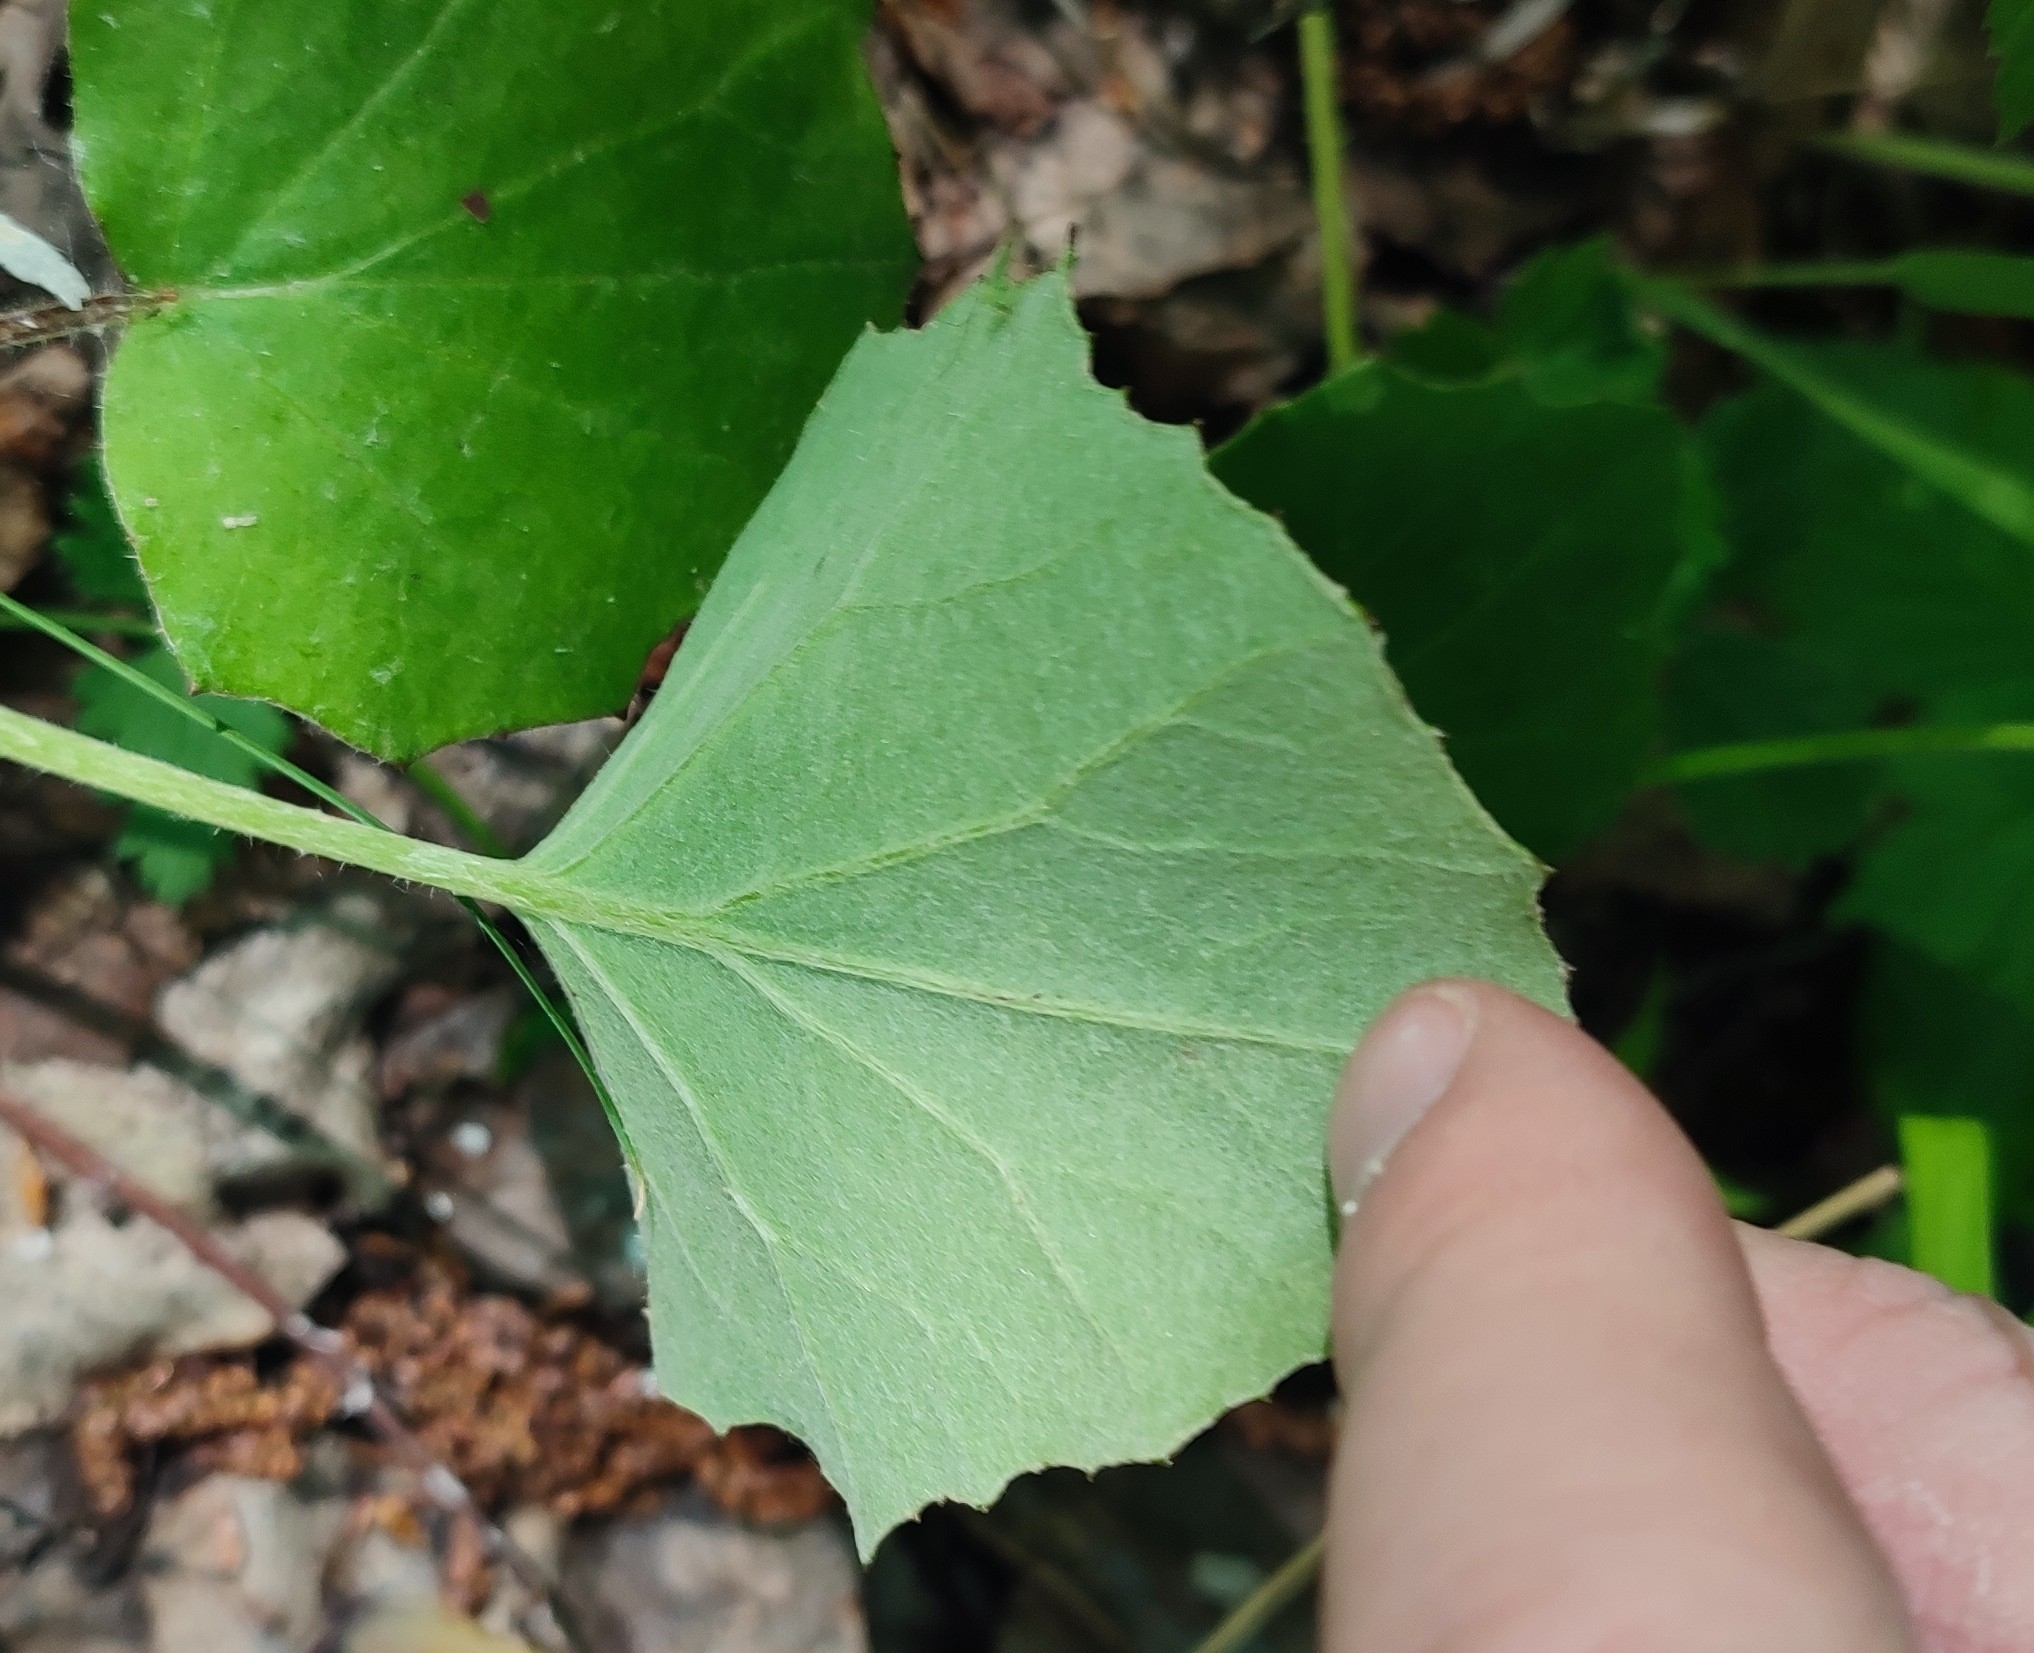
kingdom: Plantae
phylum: Tracheophyta
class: Magnoliopsida
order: Asterales
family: Asteraceae
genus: Tussilago
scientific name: Tussilago farfara
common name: Coltsfoot
